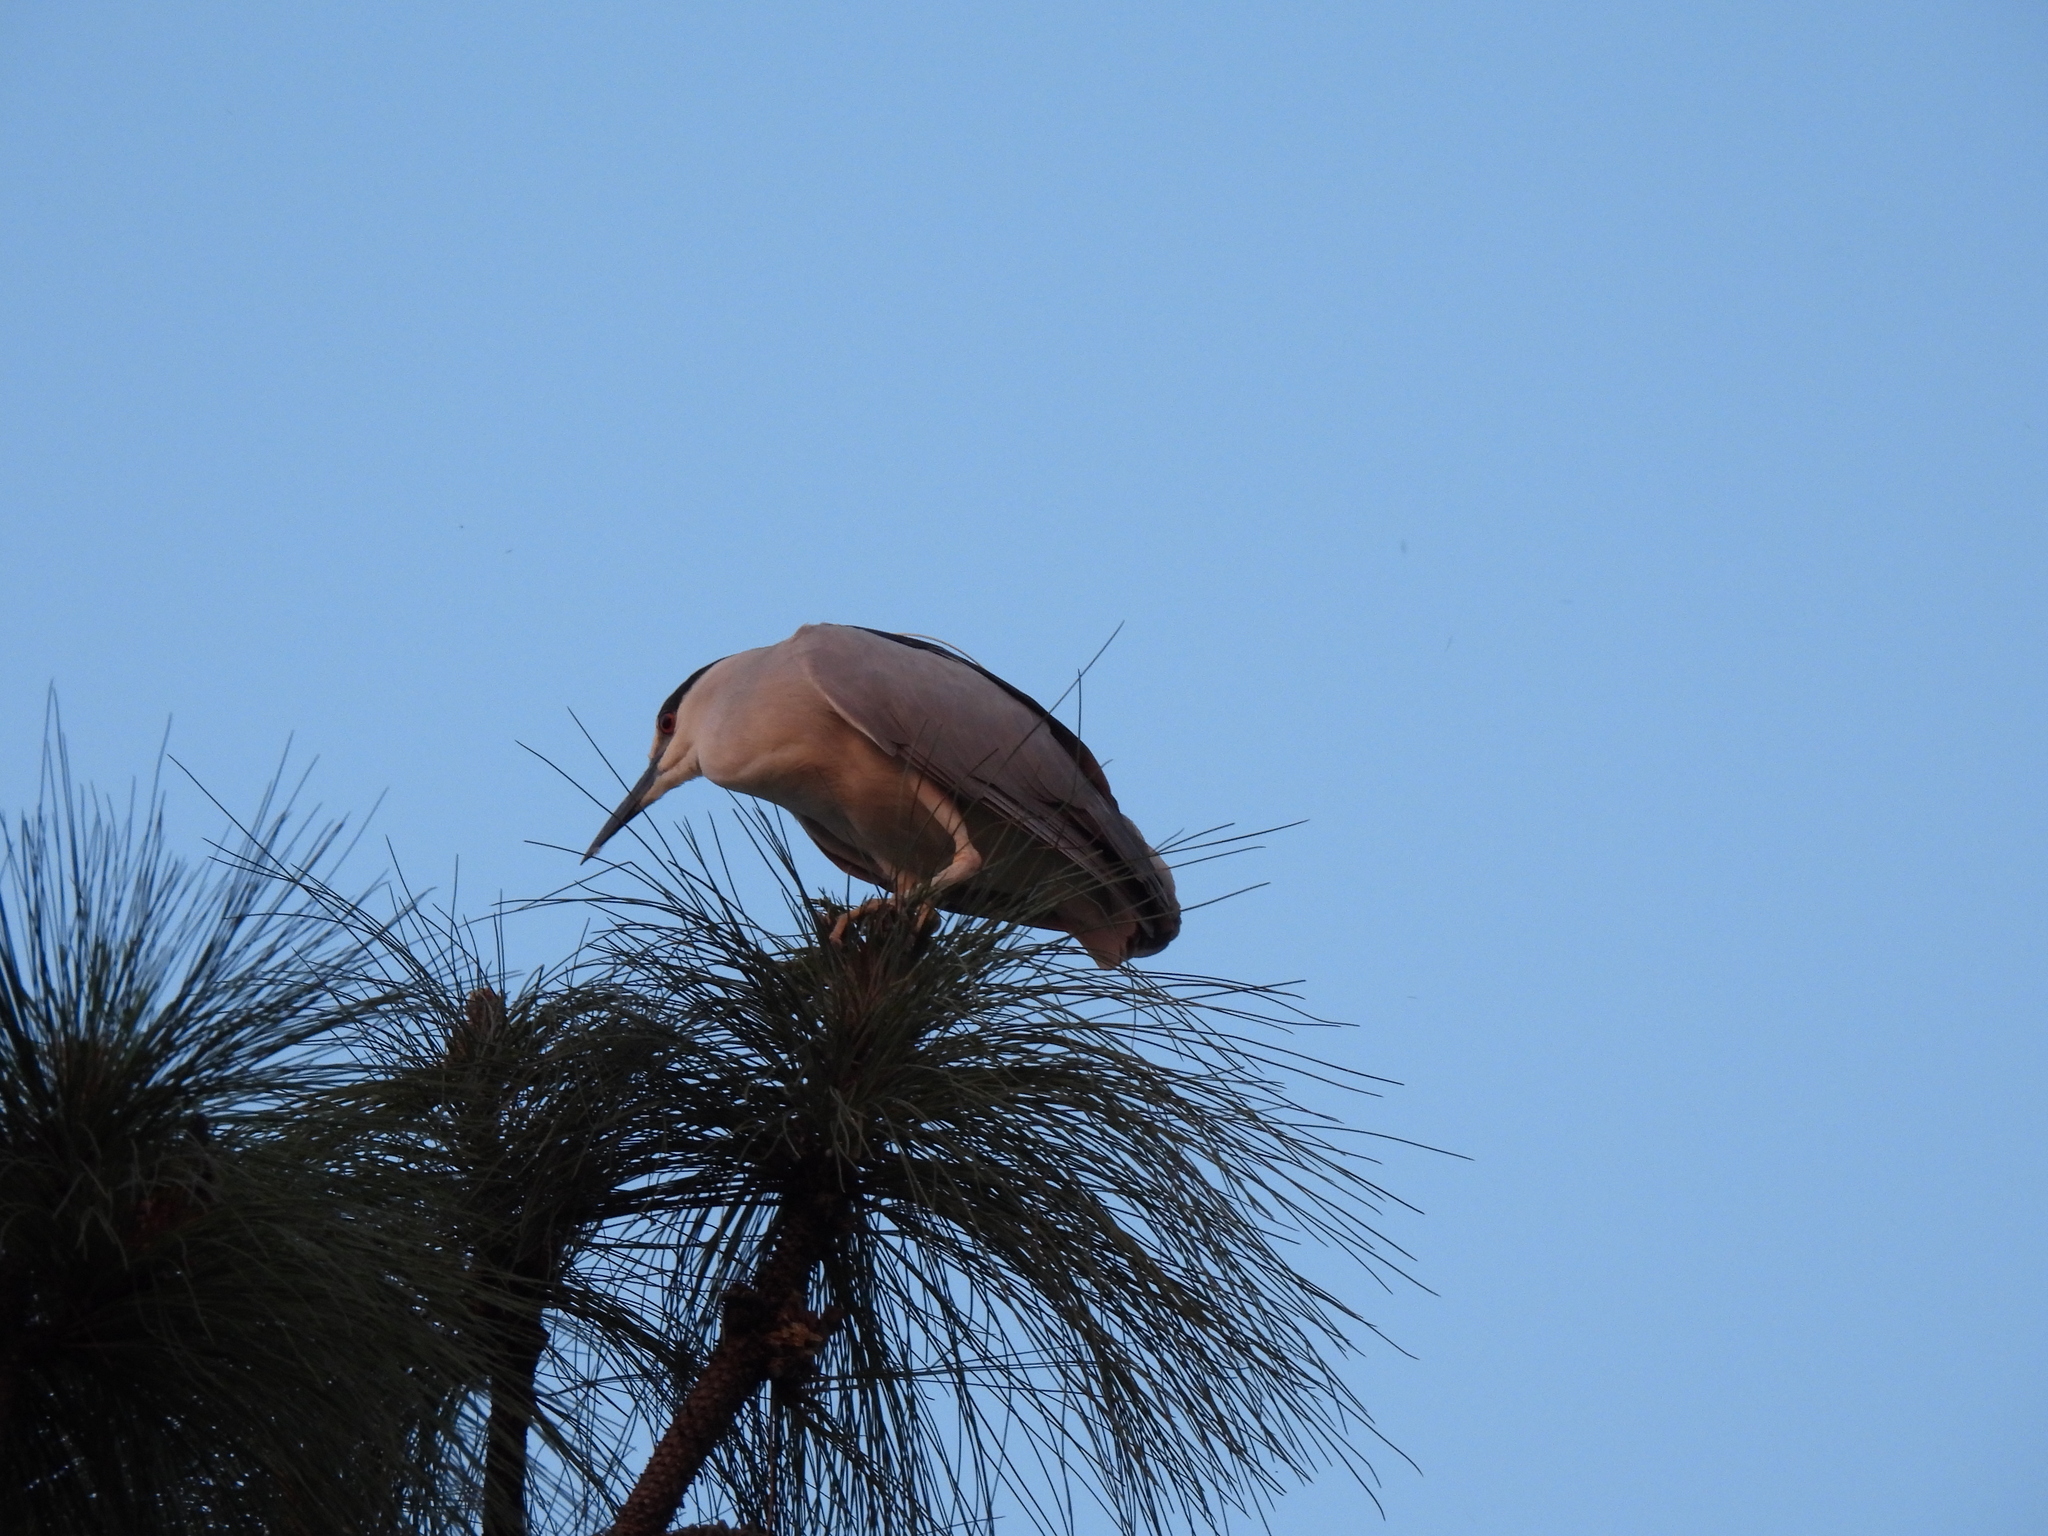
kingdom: Animalia
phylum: Chordata
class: Aves
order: Pelecaniformes
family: Ardeidae
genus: Nycticorax
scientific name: Nycticorax nycticorax
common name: Black-crowned night heron
